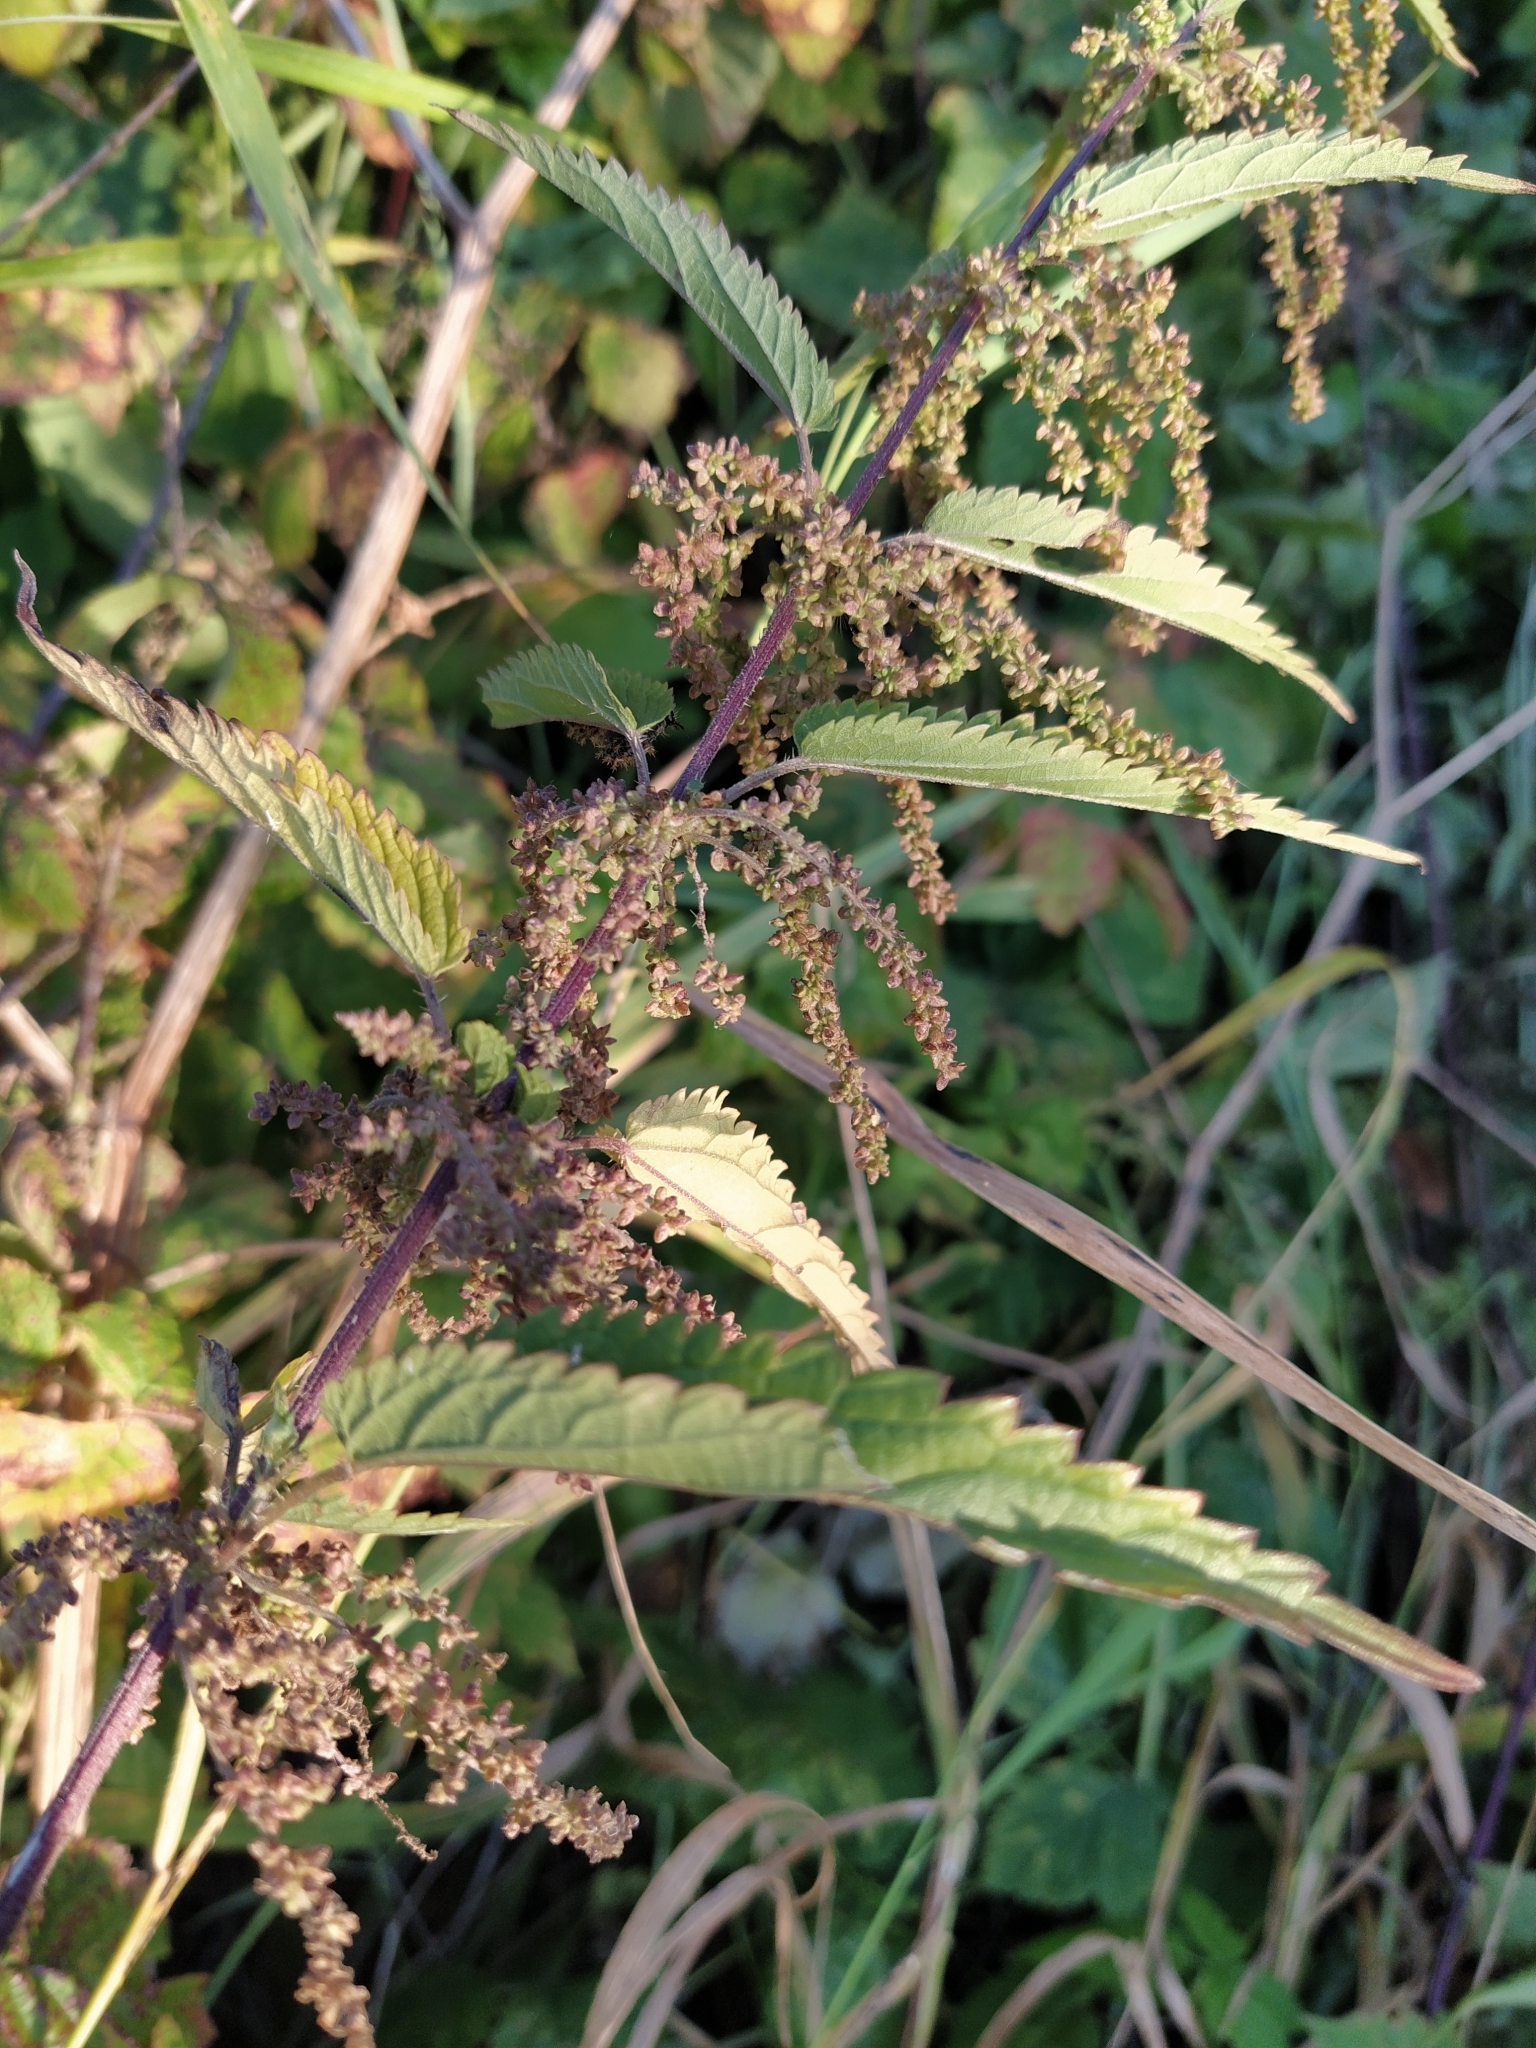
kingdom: Plantae
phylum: Tracheophyta
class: Magnoliopsida
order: Rosales
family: Urticaceae
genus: Urtica
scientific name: Urtica dioica
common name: Common nettle
